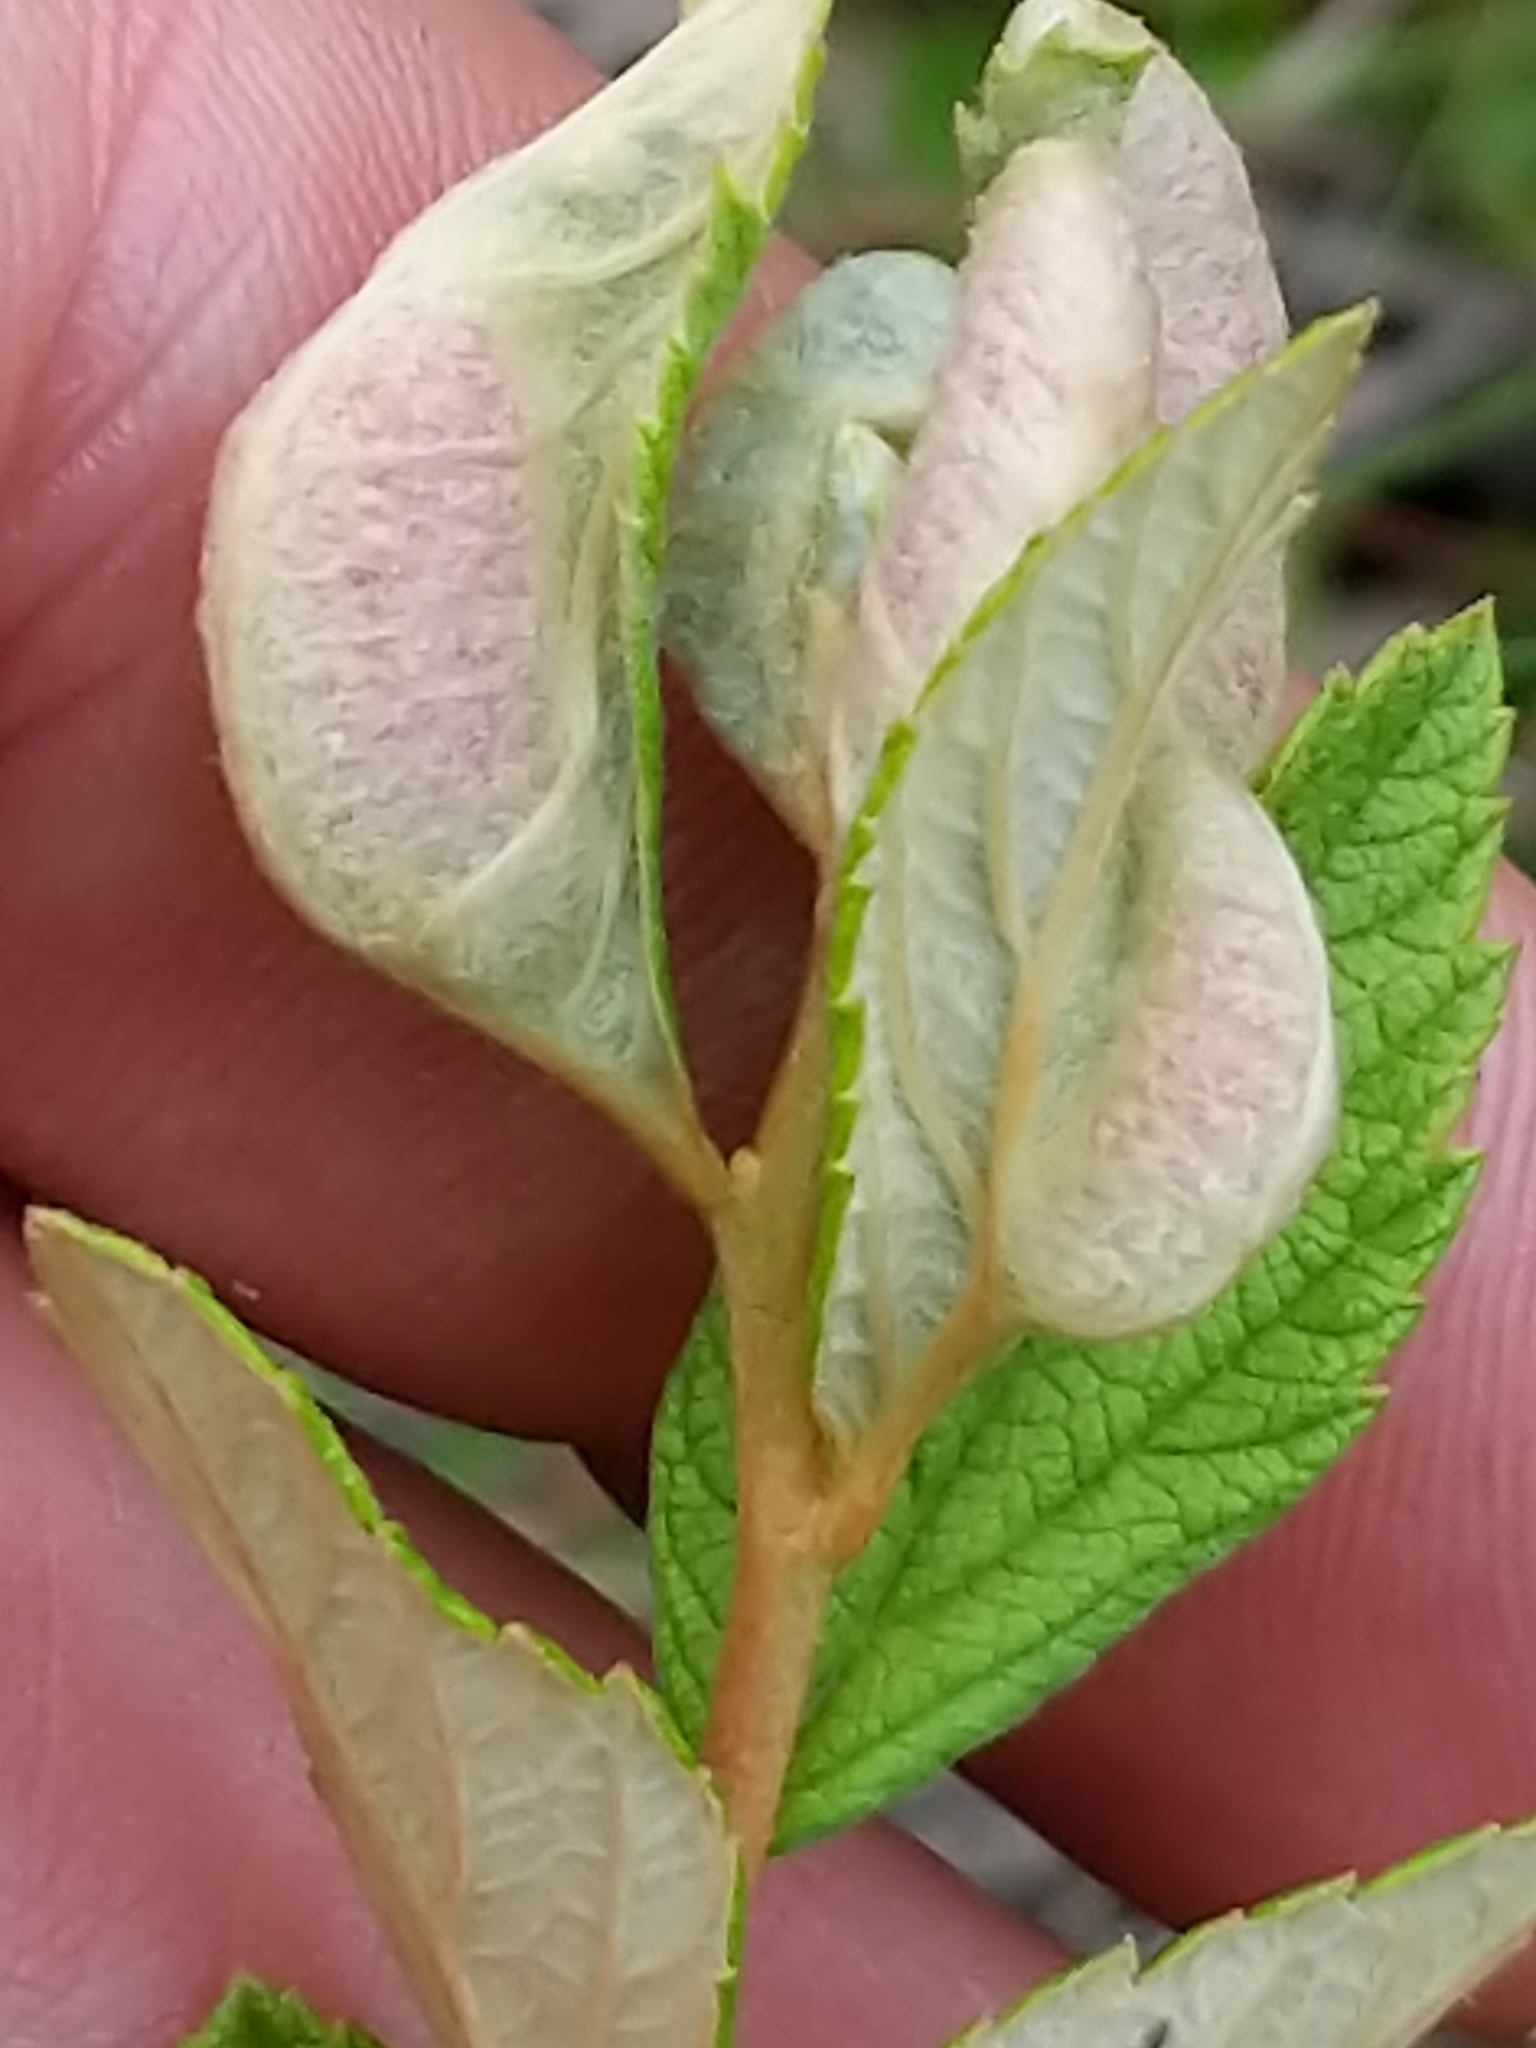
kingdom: Animalia
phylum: Arthropoda
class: Insecta
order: Diptera
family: Cecidomyiidae
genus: Dasineura
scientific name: Dasineura salicifoliae
